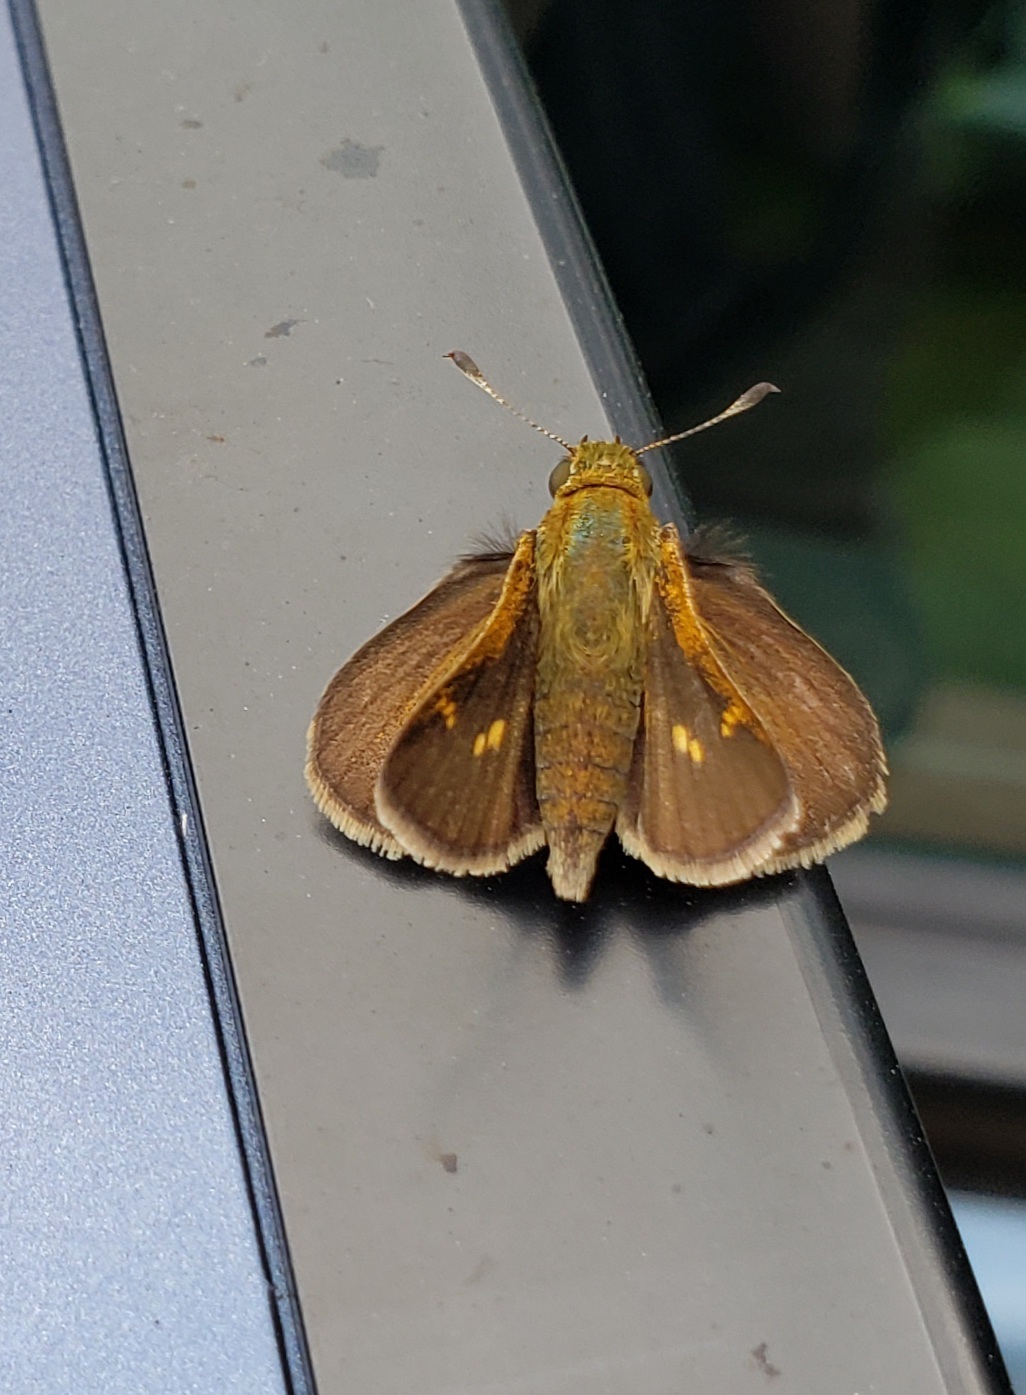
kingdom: Animalia
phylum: Arthropoda
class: Insecta
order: Lepidoptera
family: Hesperiidae
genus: Polites
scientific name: Polites themistocles
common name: Tawny-edged skipper
